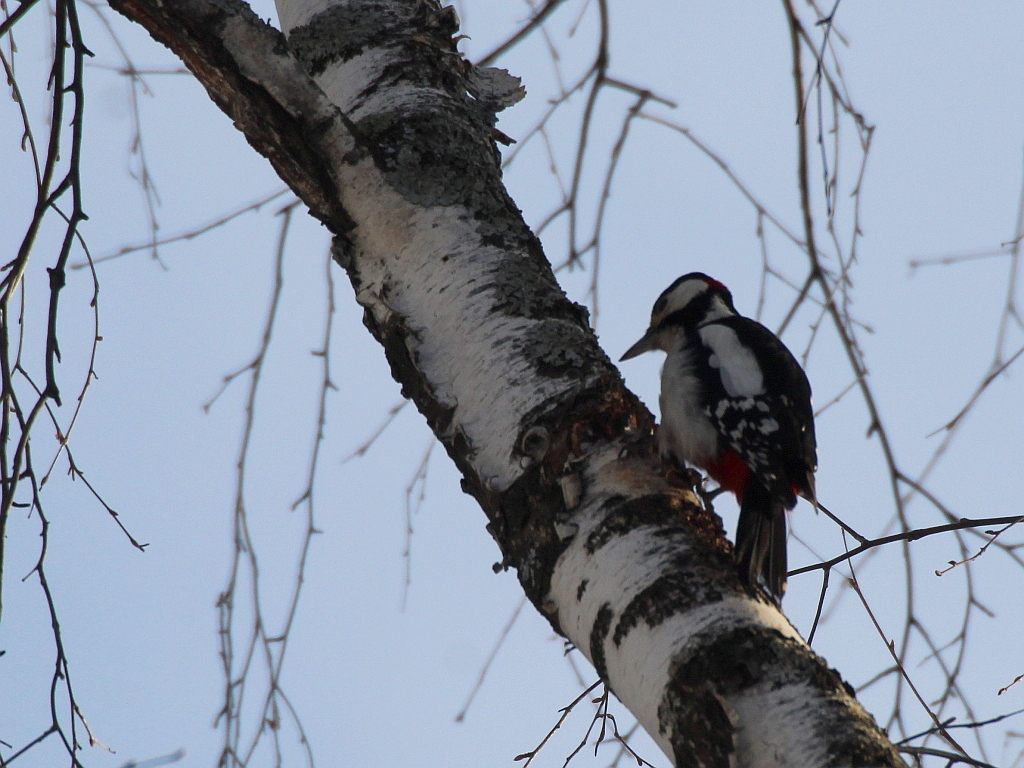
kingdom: Animalia
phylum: Chordata
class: Aves
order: Piciformes
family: Picidae
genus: Dendrocopos
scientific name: Dendrocopos major
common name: Great spotted woodpecker
